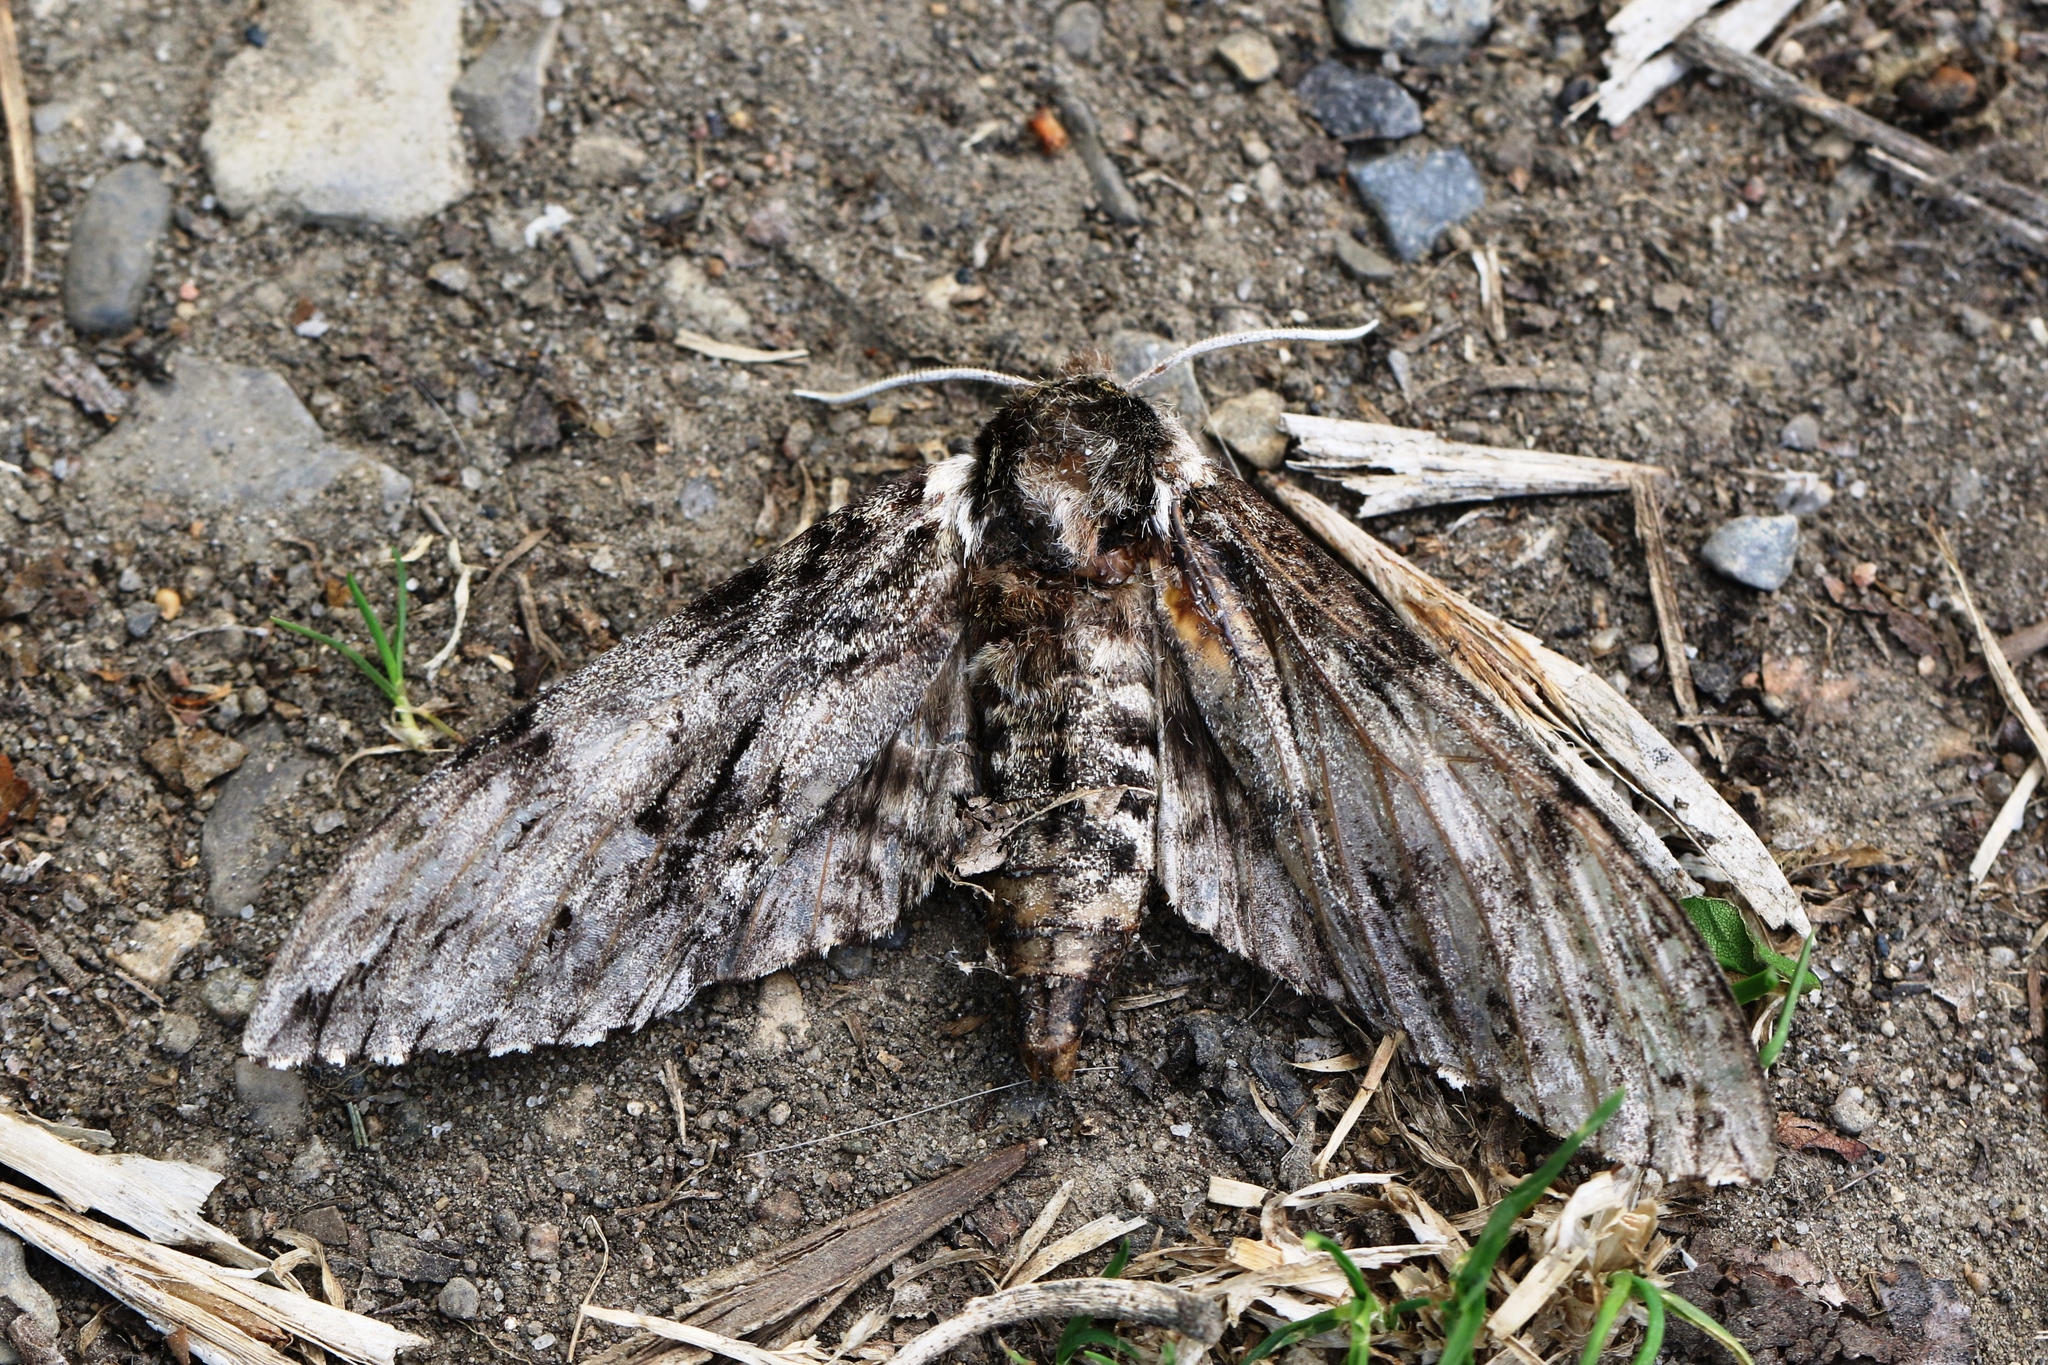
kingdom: Animalia
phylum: Arthropoda
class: Insecta
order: Lepidoptera
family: Sphingidae
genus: Sphinx
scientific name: Sphinx poecila
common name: Northern apple sphinx
